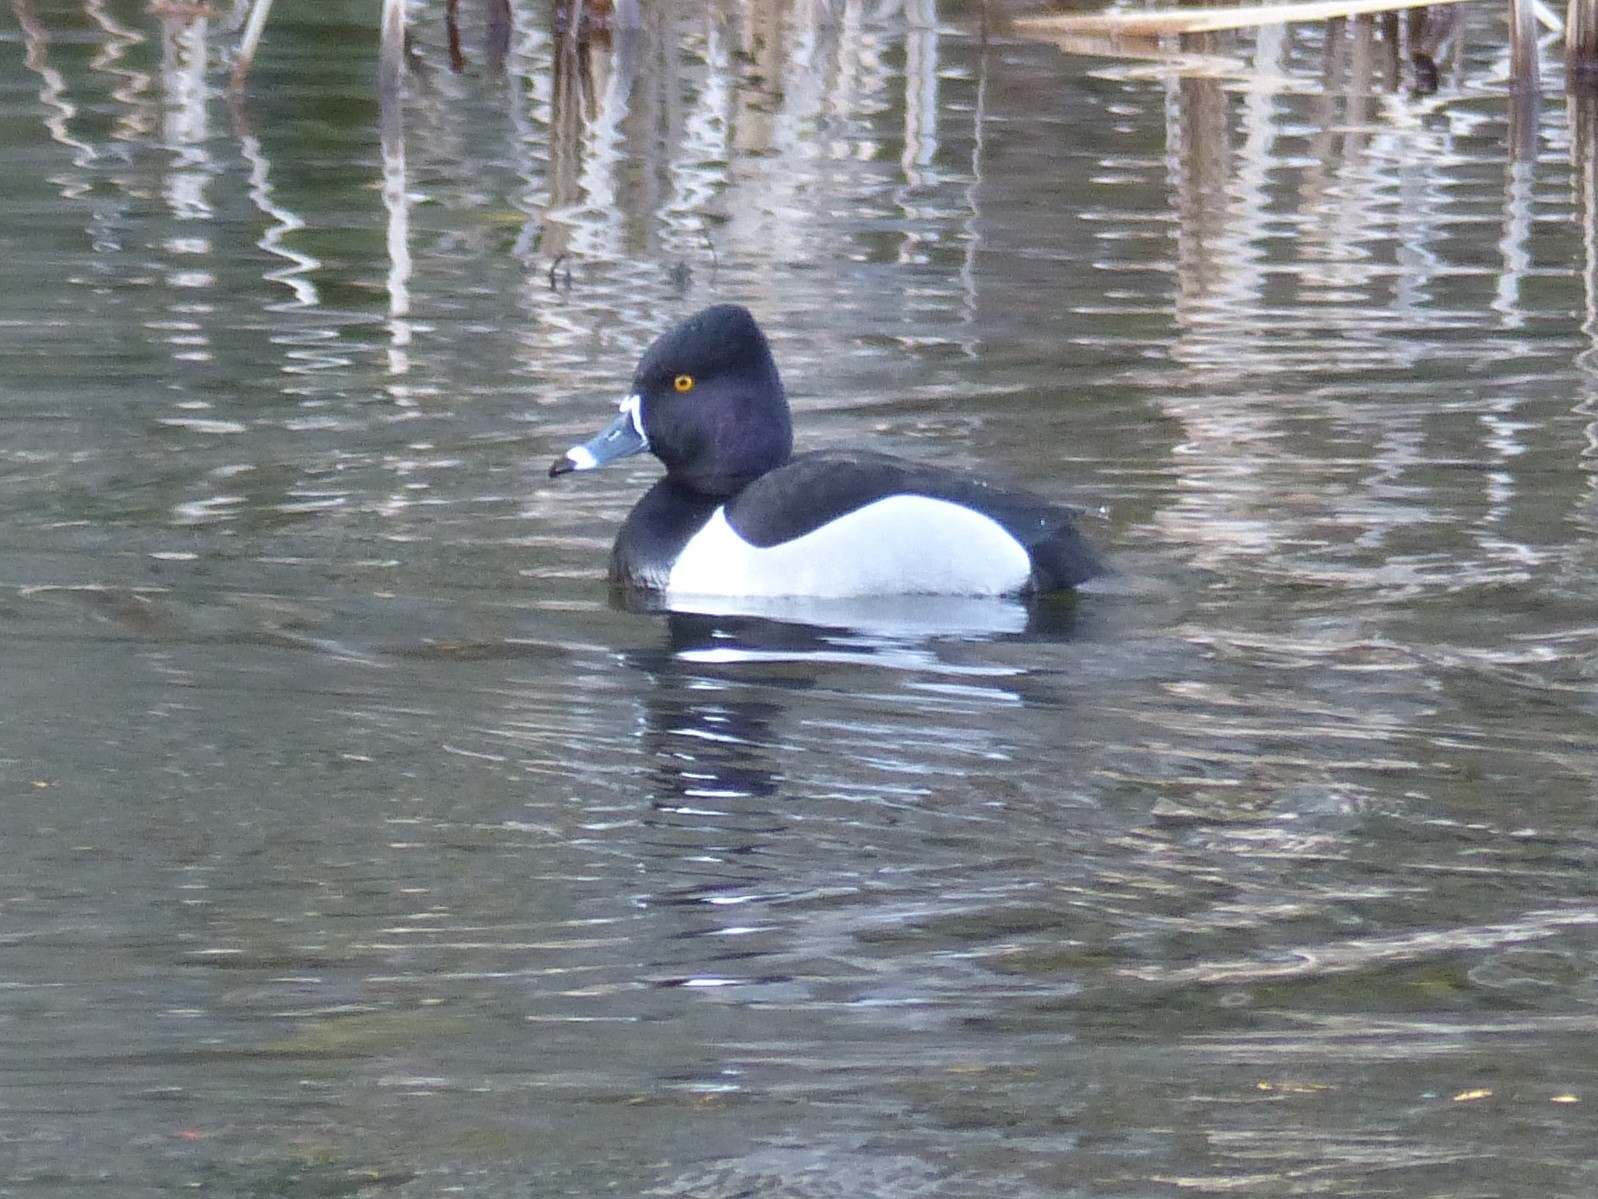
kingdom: Animalia
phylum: Chordata
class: Aves
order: Anseriformes
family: Anatidae
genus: Aythya
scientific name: Aythya collaris
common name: Ring-necked duck
